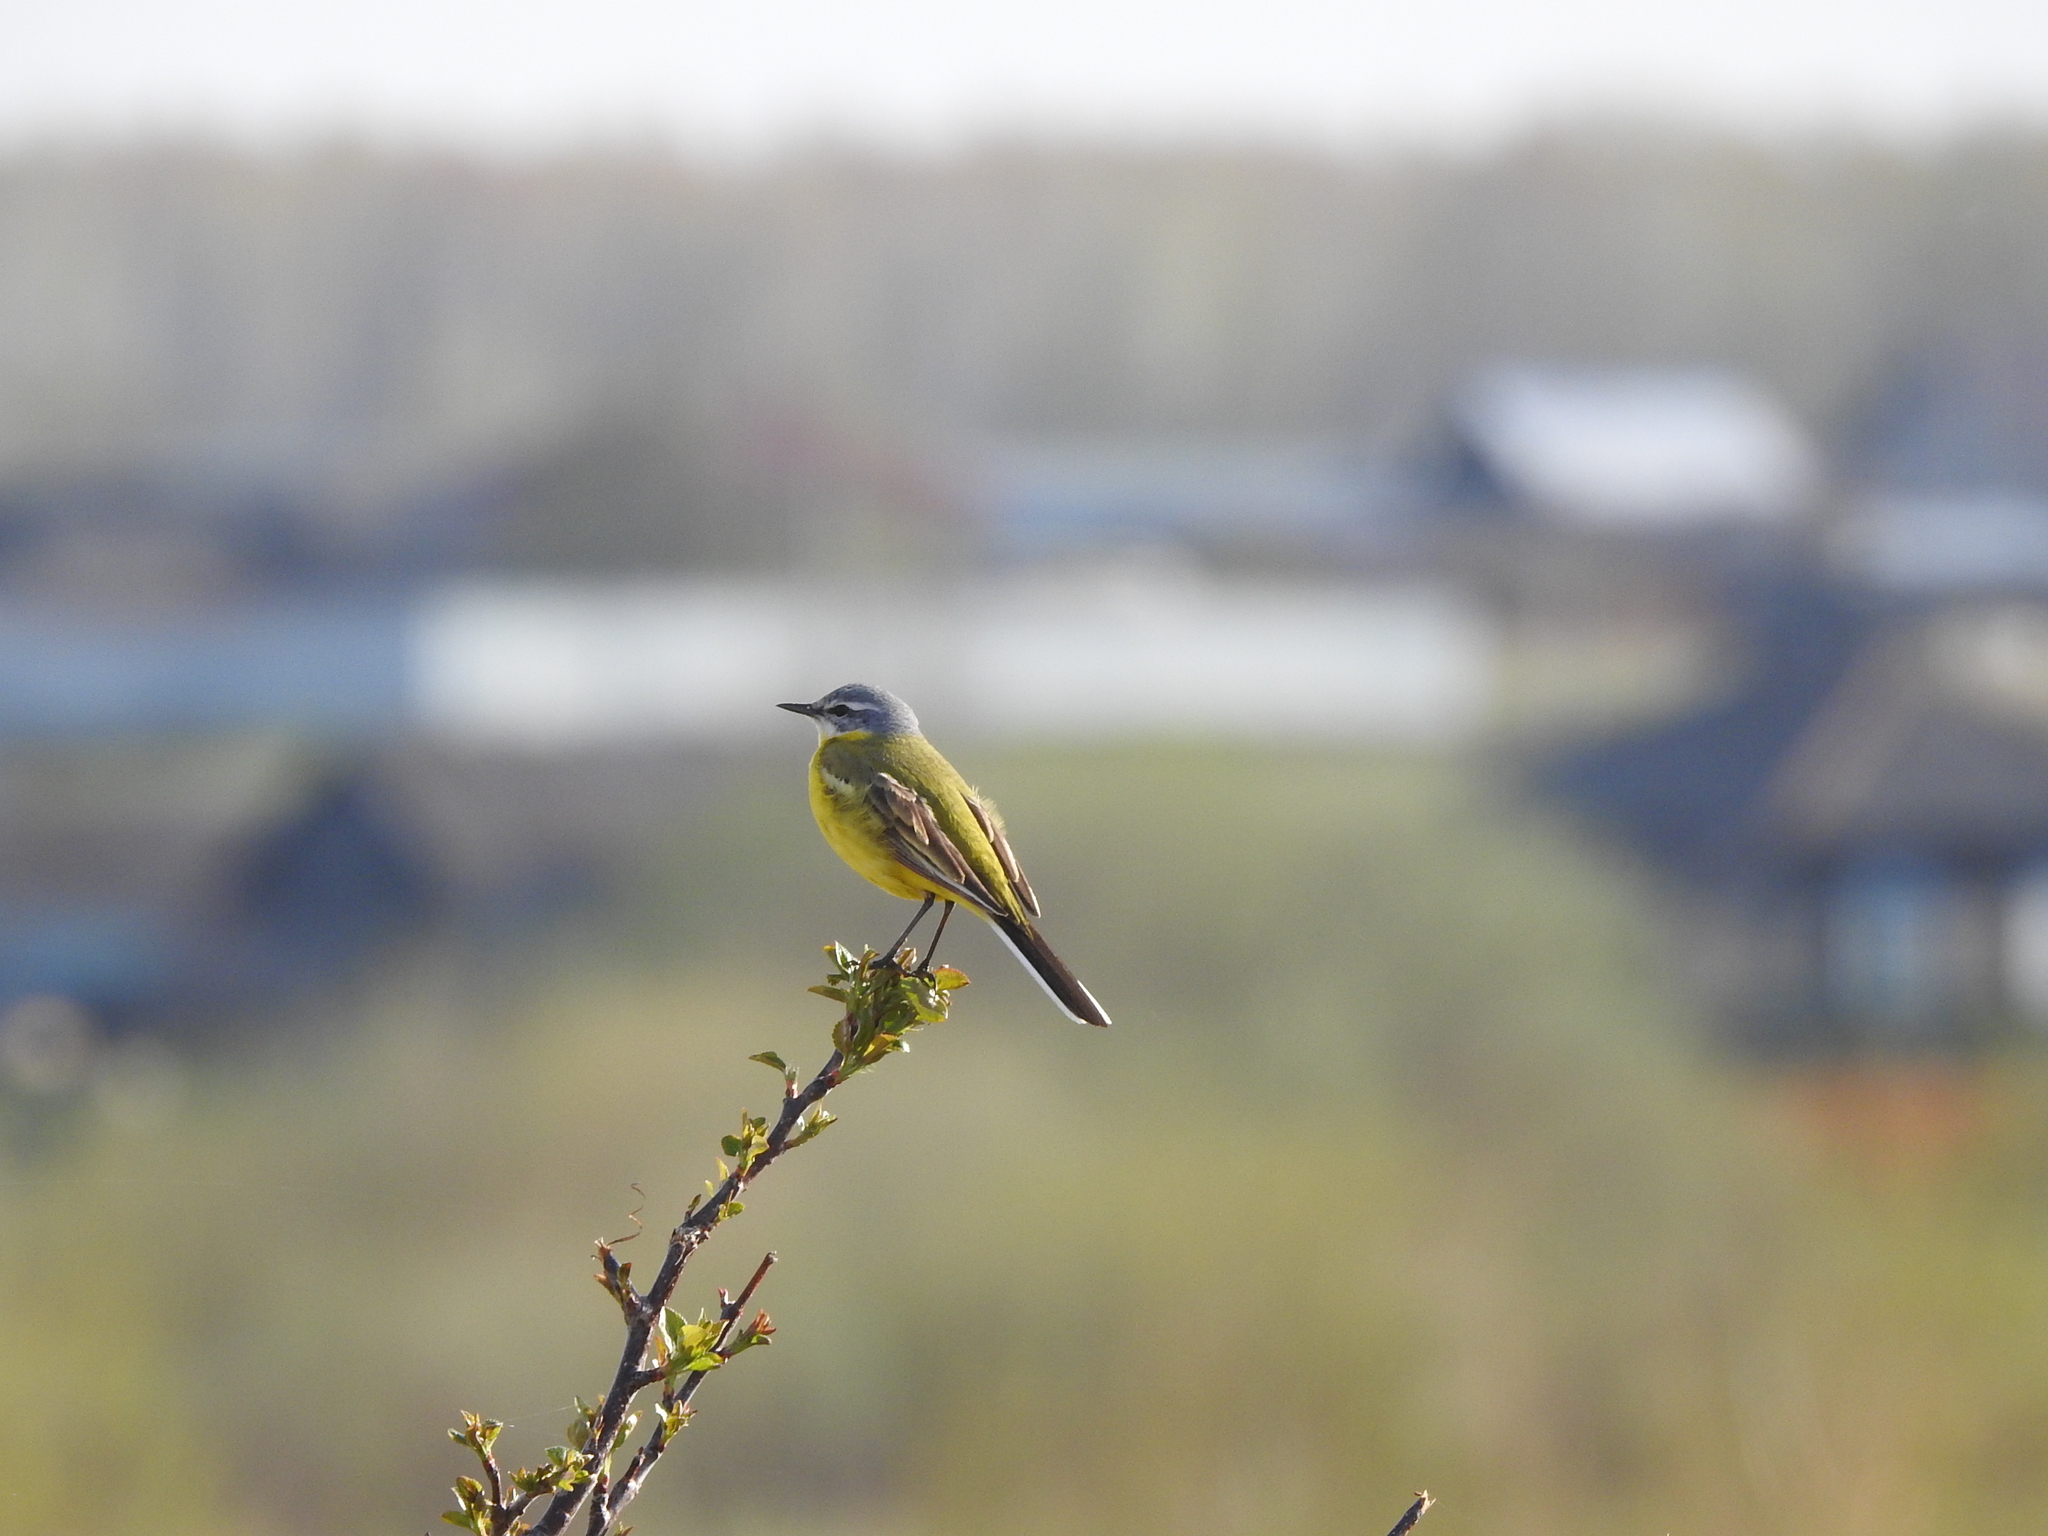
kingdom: Animalia
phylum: Chordata
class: Aves
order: Passeriformes
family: Motacillidae
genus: Motacilla
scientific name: Motacilla flava
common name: Western yellow wagtail
